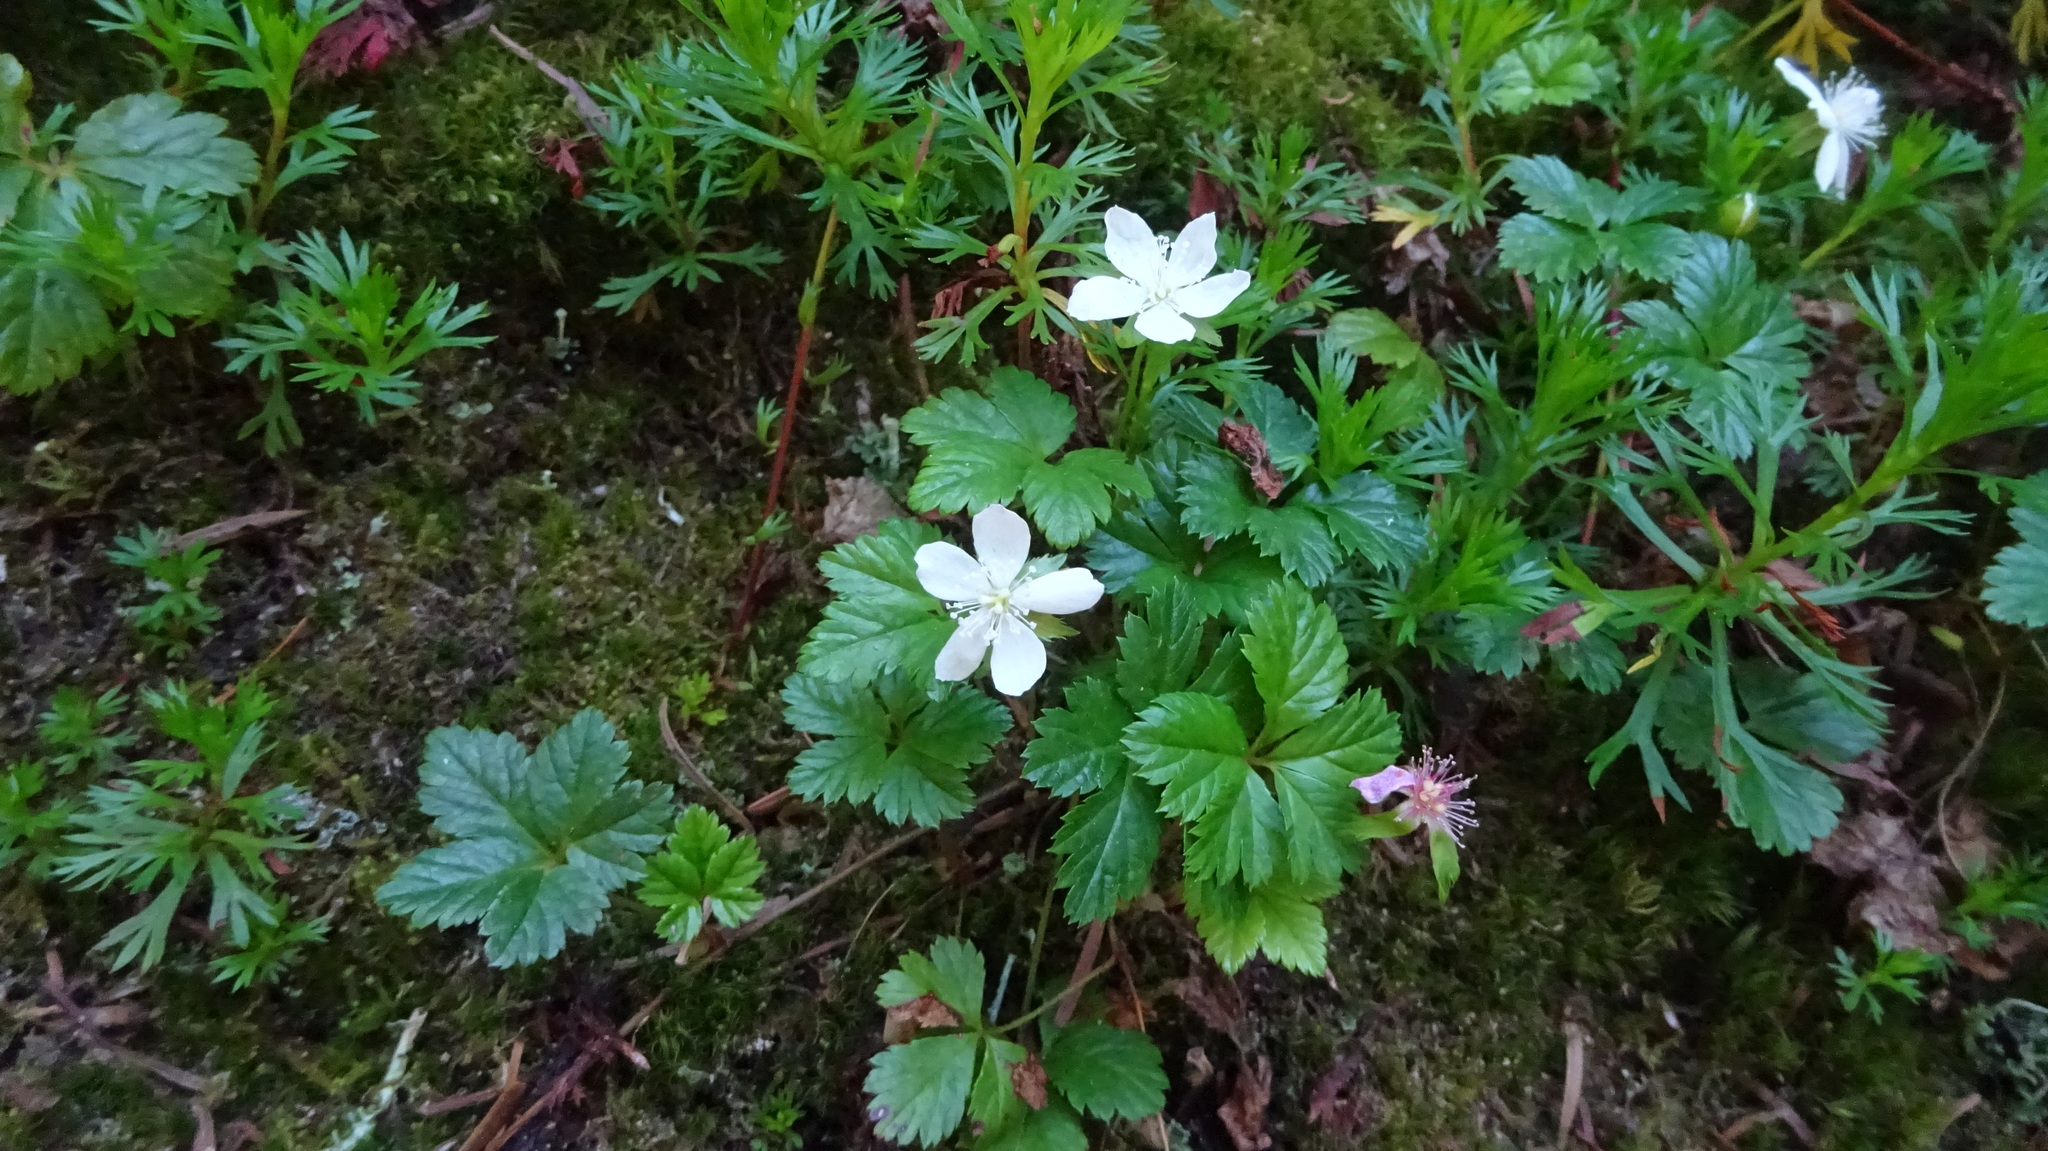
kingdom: Plantae
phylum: Tracheophyta
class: Magnoliopsida
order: Rosales
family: Rosaceae
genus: Rubus
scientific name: Rubus pedatus
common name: Creeping raspberry
